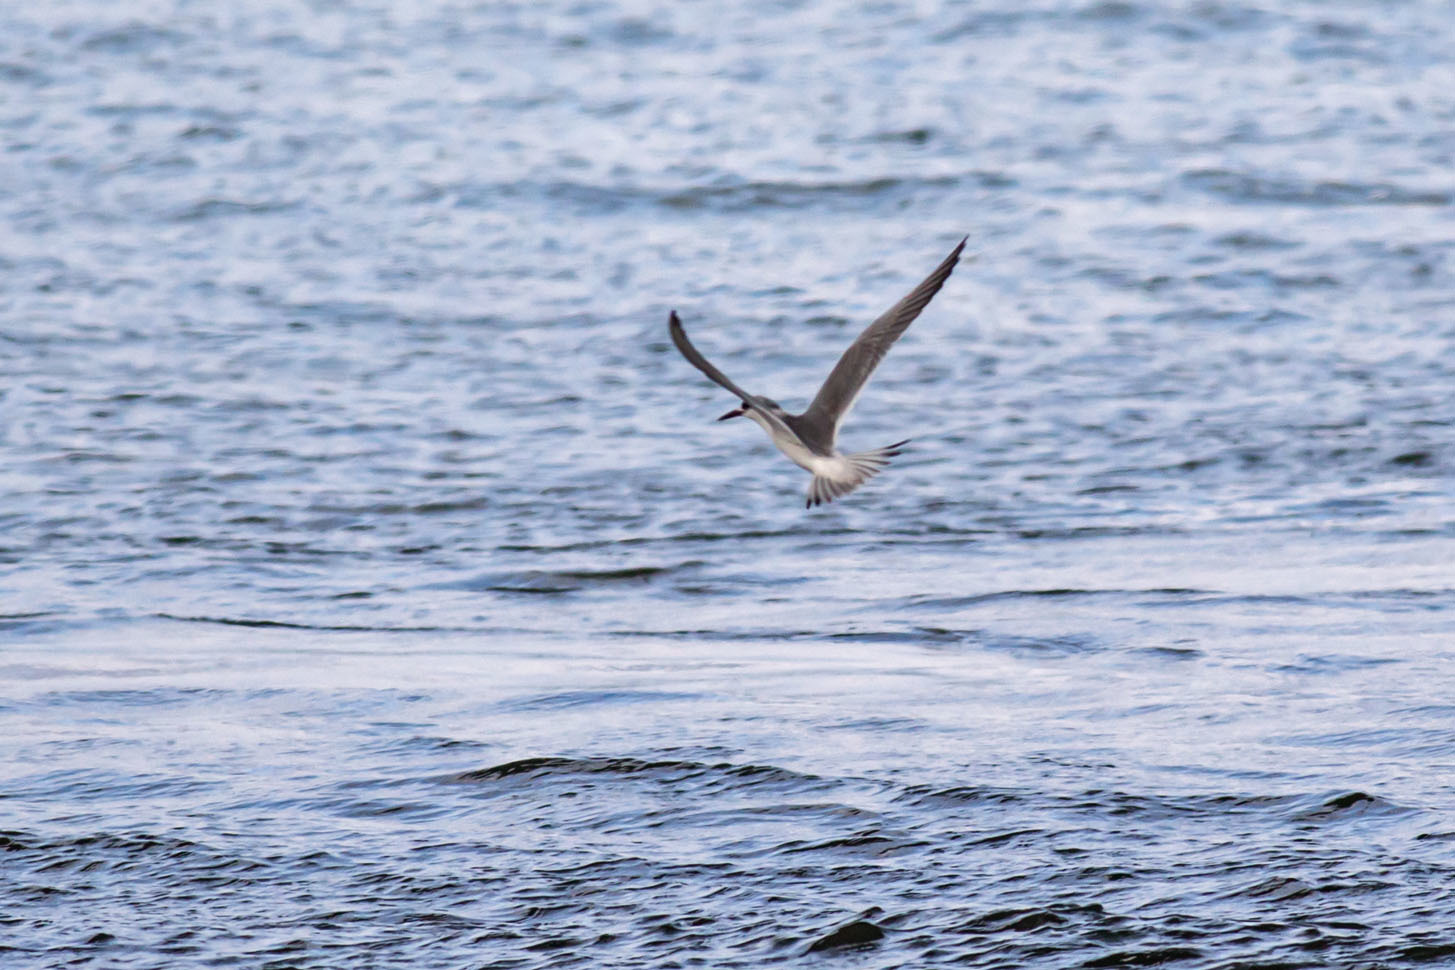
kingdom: Animalia
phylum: Chordata
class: Aves
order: Charadriiformes
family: Laridae
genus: Sterna
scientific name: Sterna forsteri
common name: Forster's tern
